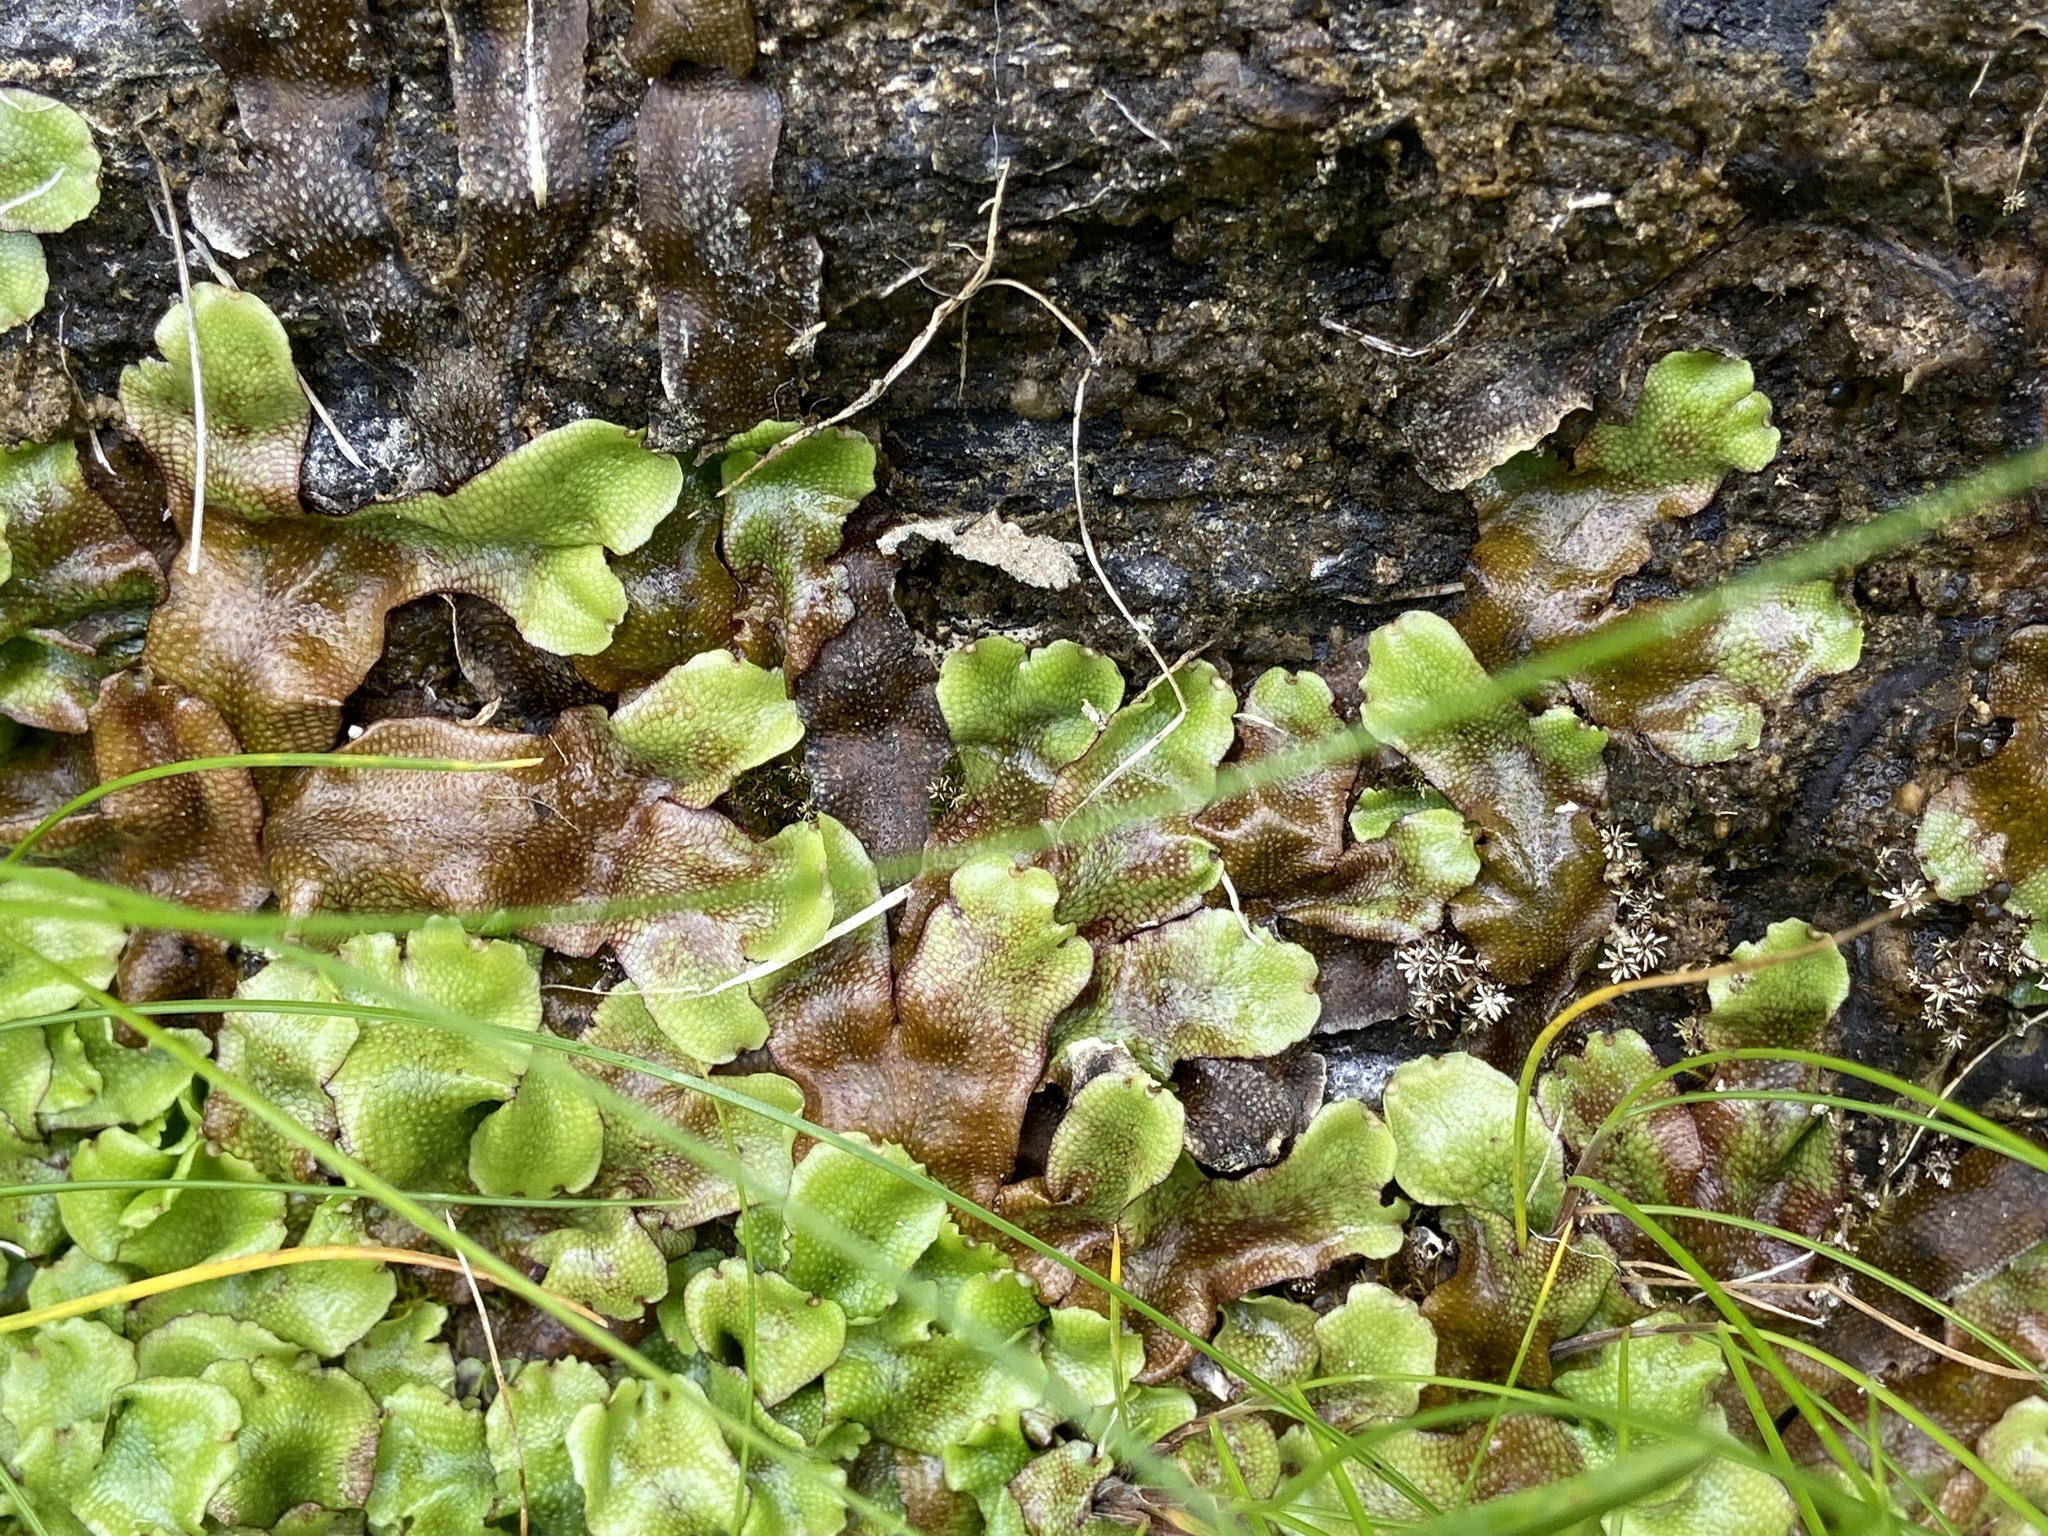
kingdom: Plantae
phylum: Marchantiophyta
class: Marchantiopsida
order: Marchantiales
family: Conocephalaceae
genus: Conocephalum
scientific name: Conocephalum conicum
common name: Great scented liverwort
